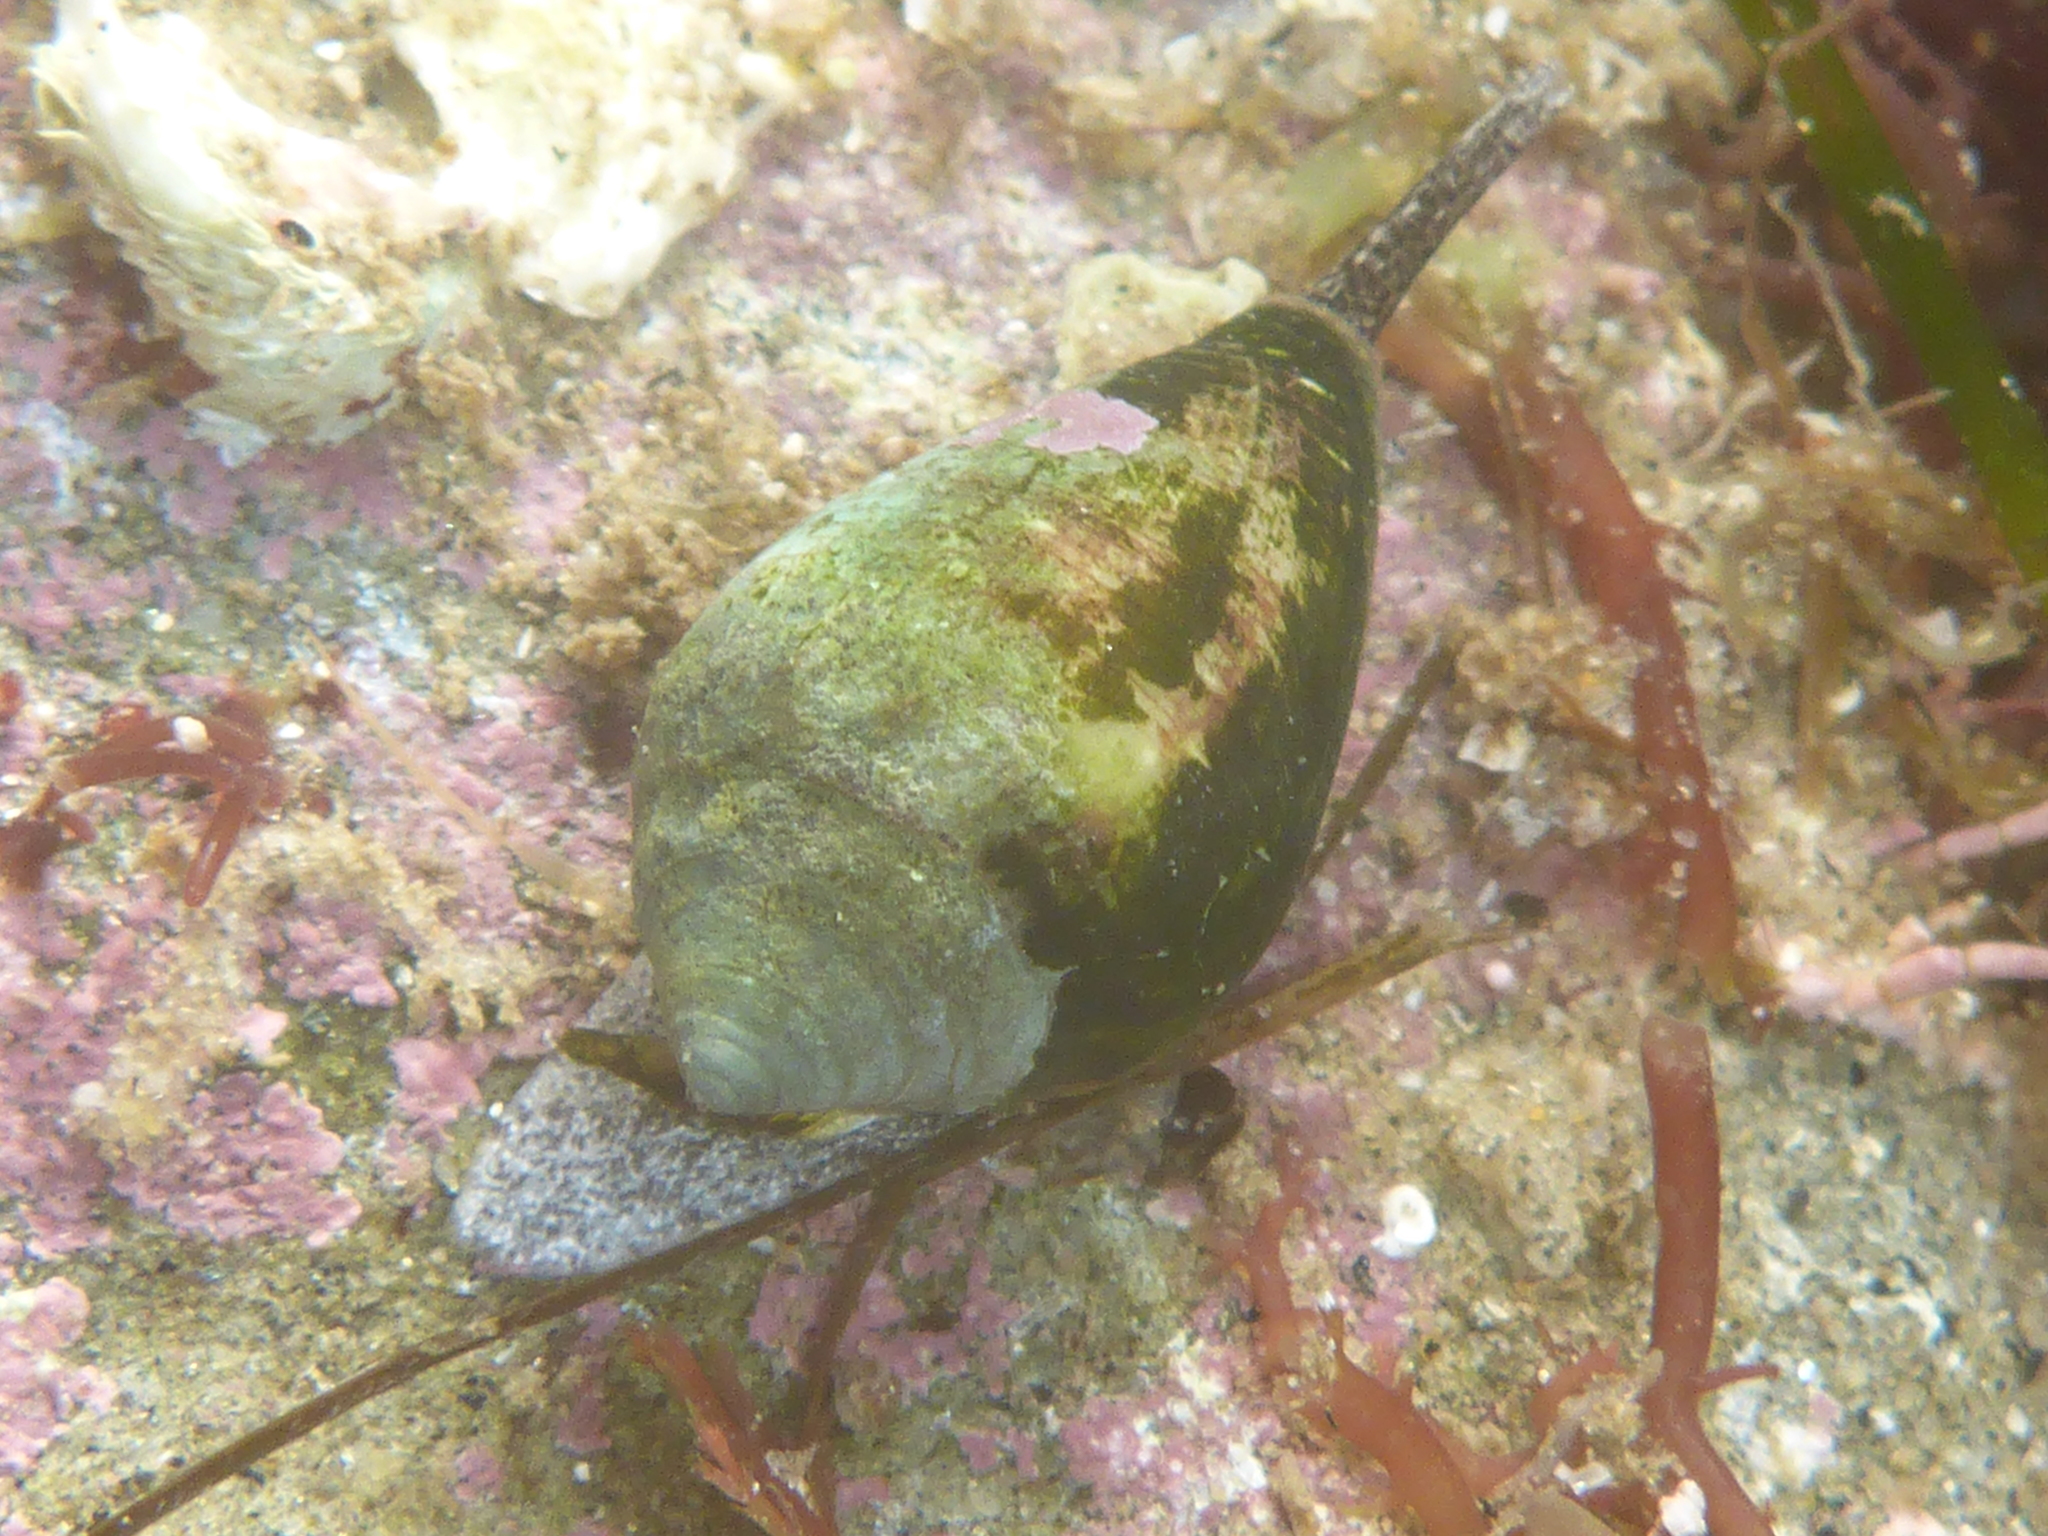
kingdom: Animalia
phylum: Mollusca
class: Gastropoda
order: Neogastropoda
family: Conidae
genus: Californiconus
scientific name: Californiconus californicus
